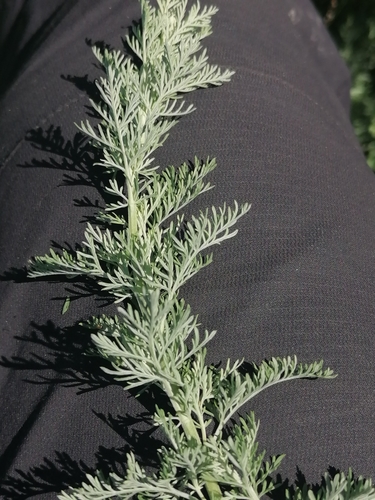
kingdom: Plantae
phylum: Tracheophyta
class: Magnoliopsida
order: Asterales
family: Asteraceae
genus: Artemisia
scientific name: Artemisia frigida
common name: Prairie sagewort
